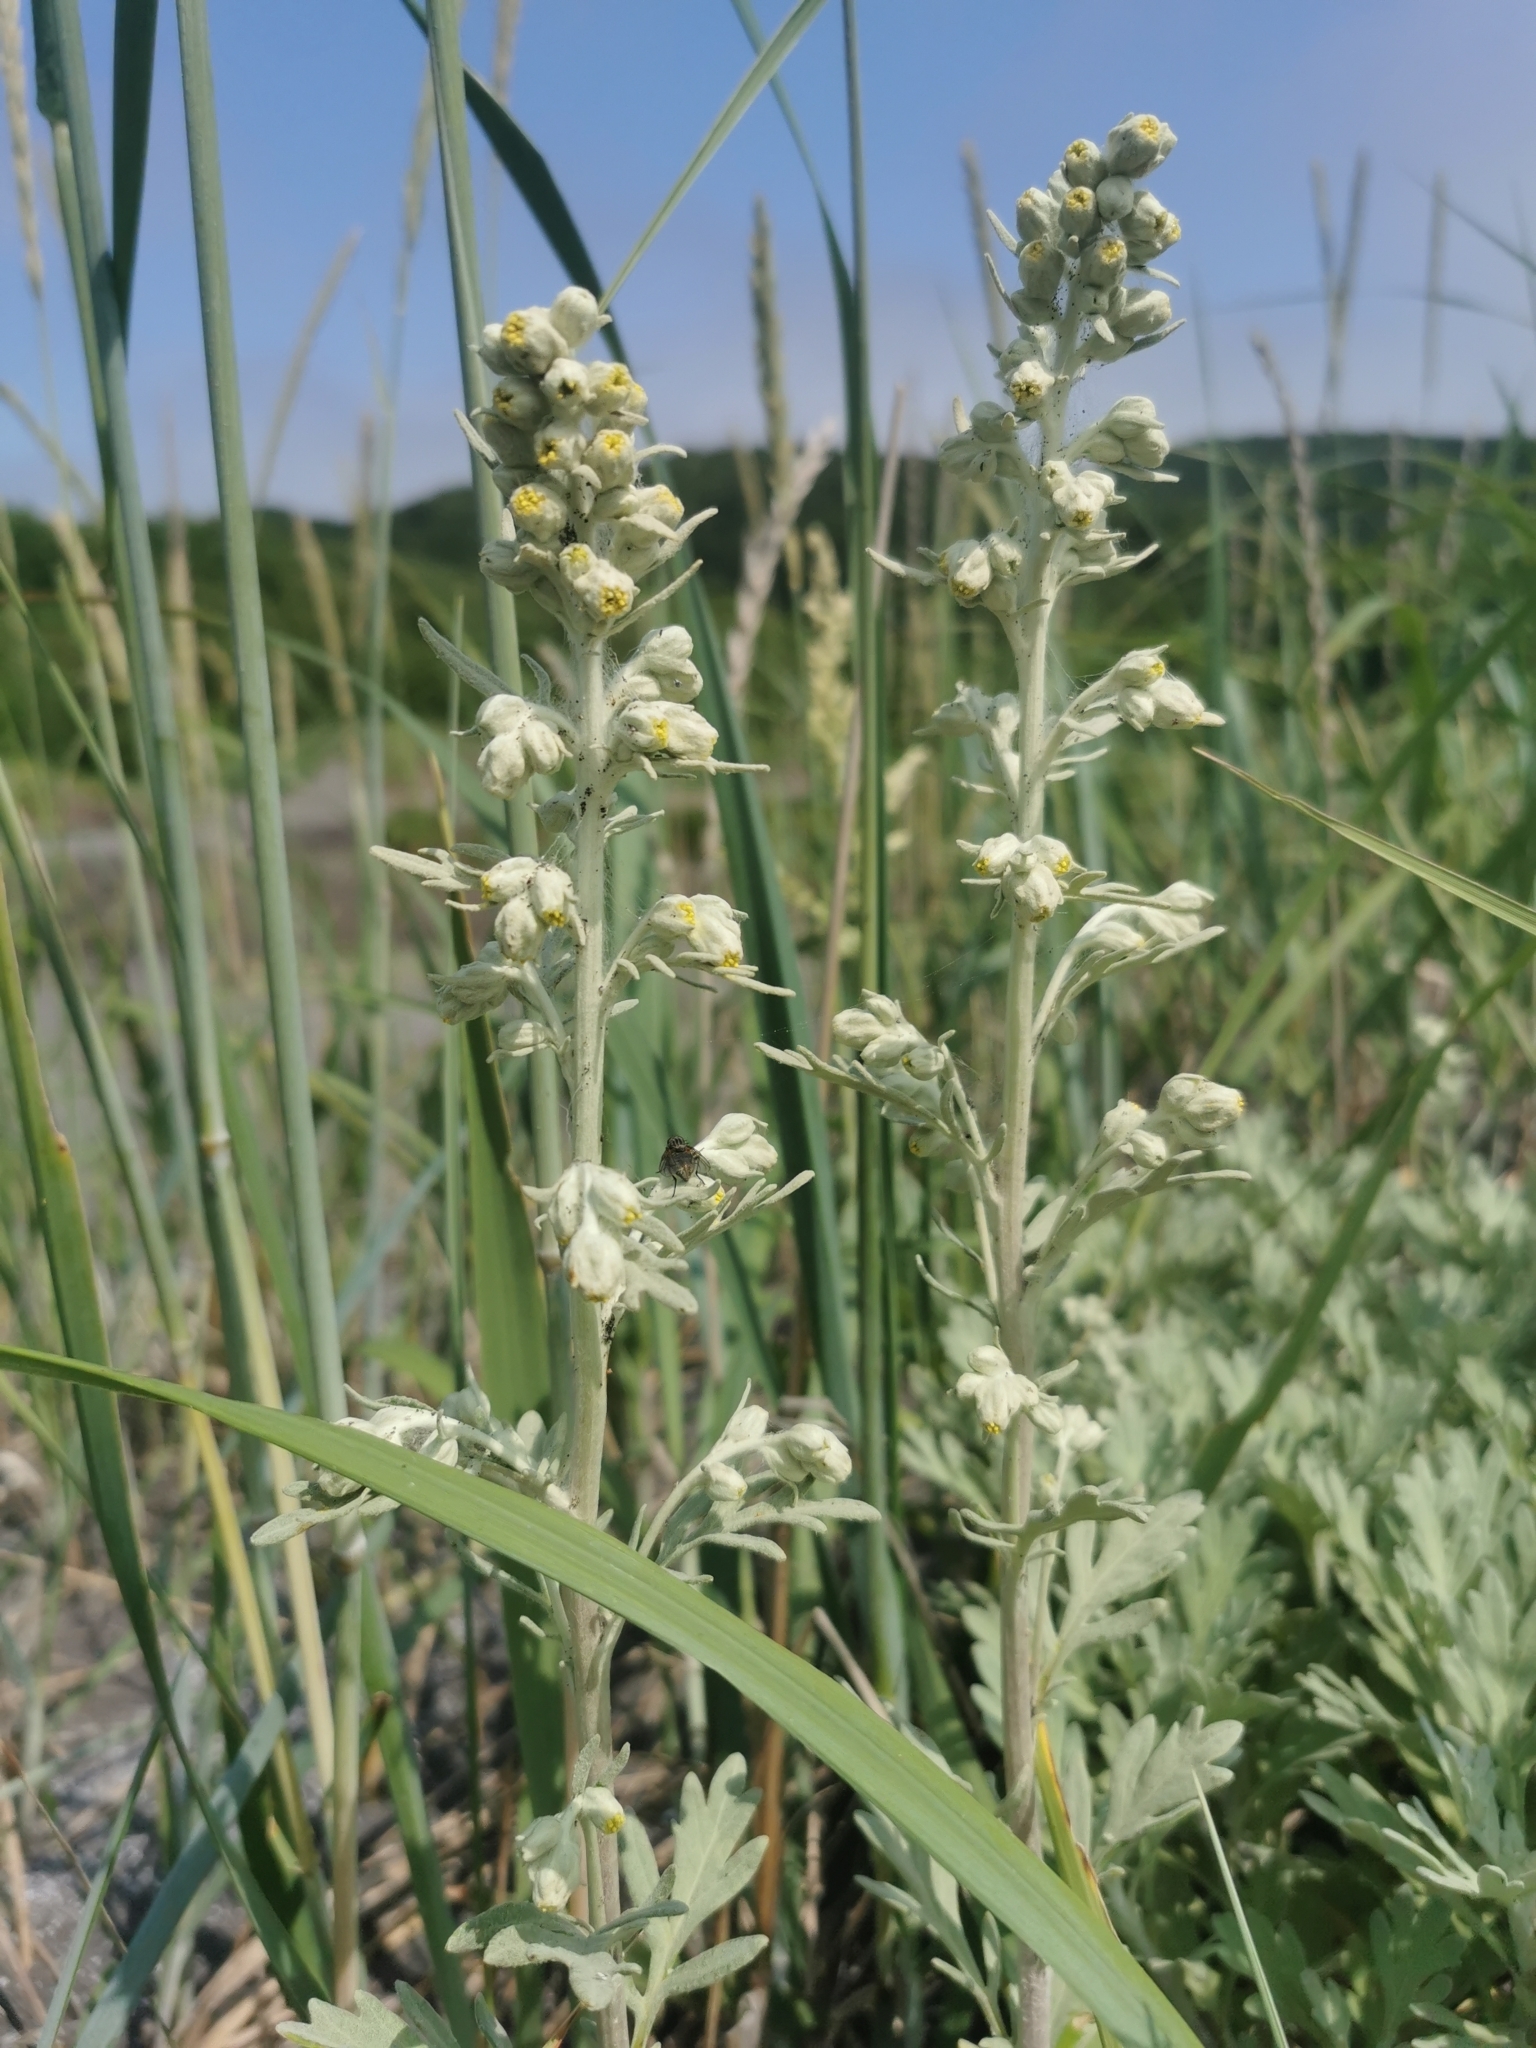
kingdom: Plantae
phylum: Tracheophyta
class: Magnoliopsida
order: Asterales
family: Asteraceae
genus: Artemisia
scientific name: Artemisia stelleriana
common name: Beach wormwood
